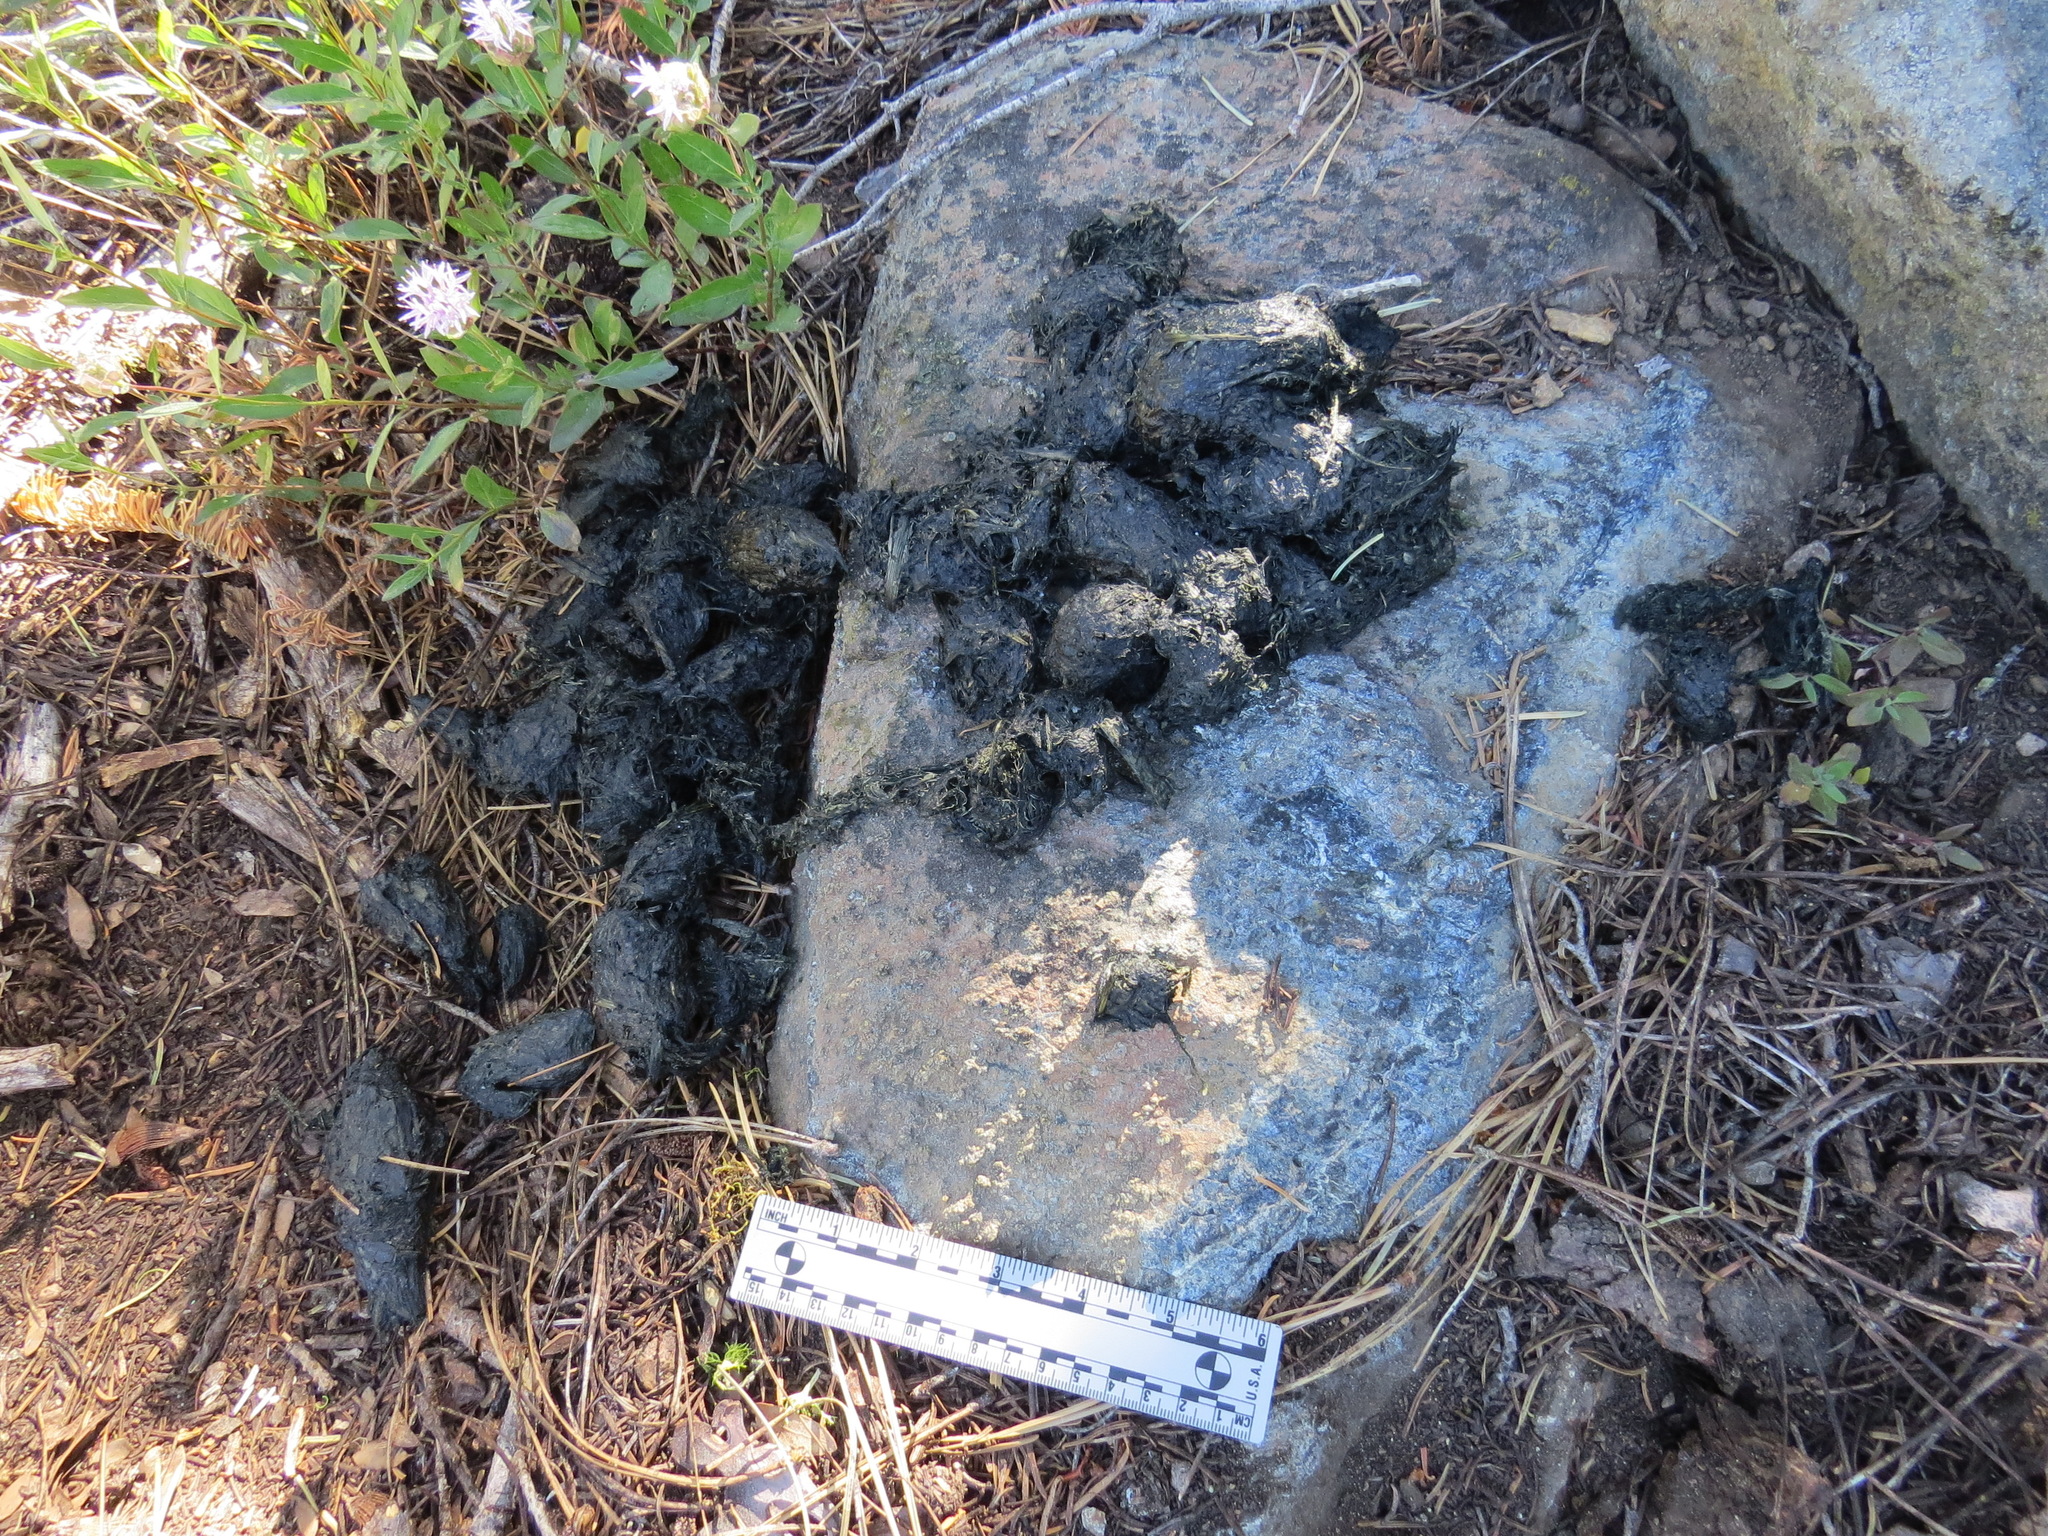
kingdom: Animalia
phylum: Chordata
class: Mammalia
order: Carnivora
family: Ursidae
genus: Ursus
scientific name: Ursus americanus
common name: American black bear
